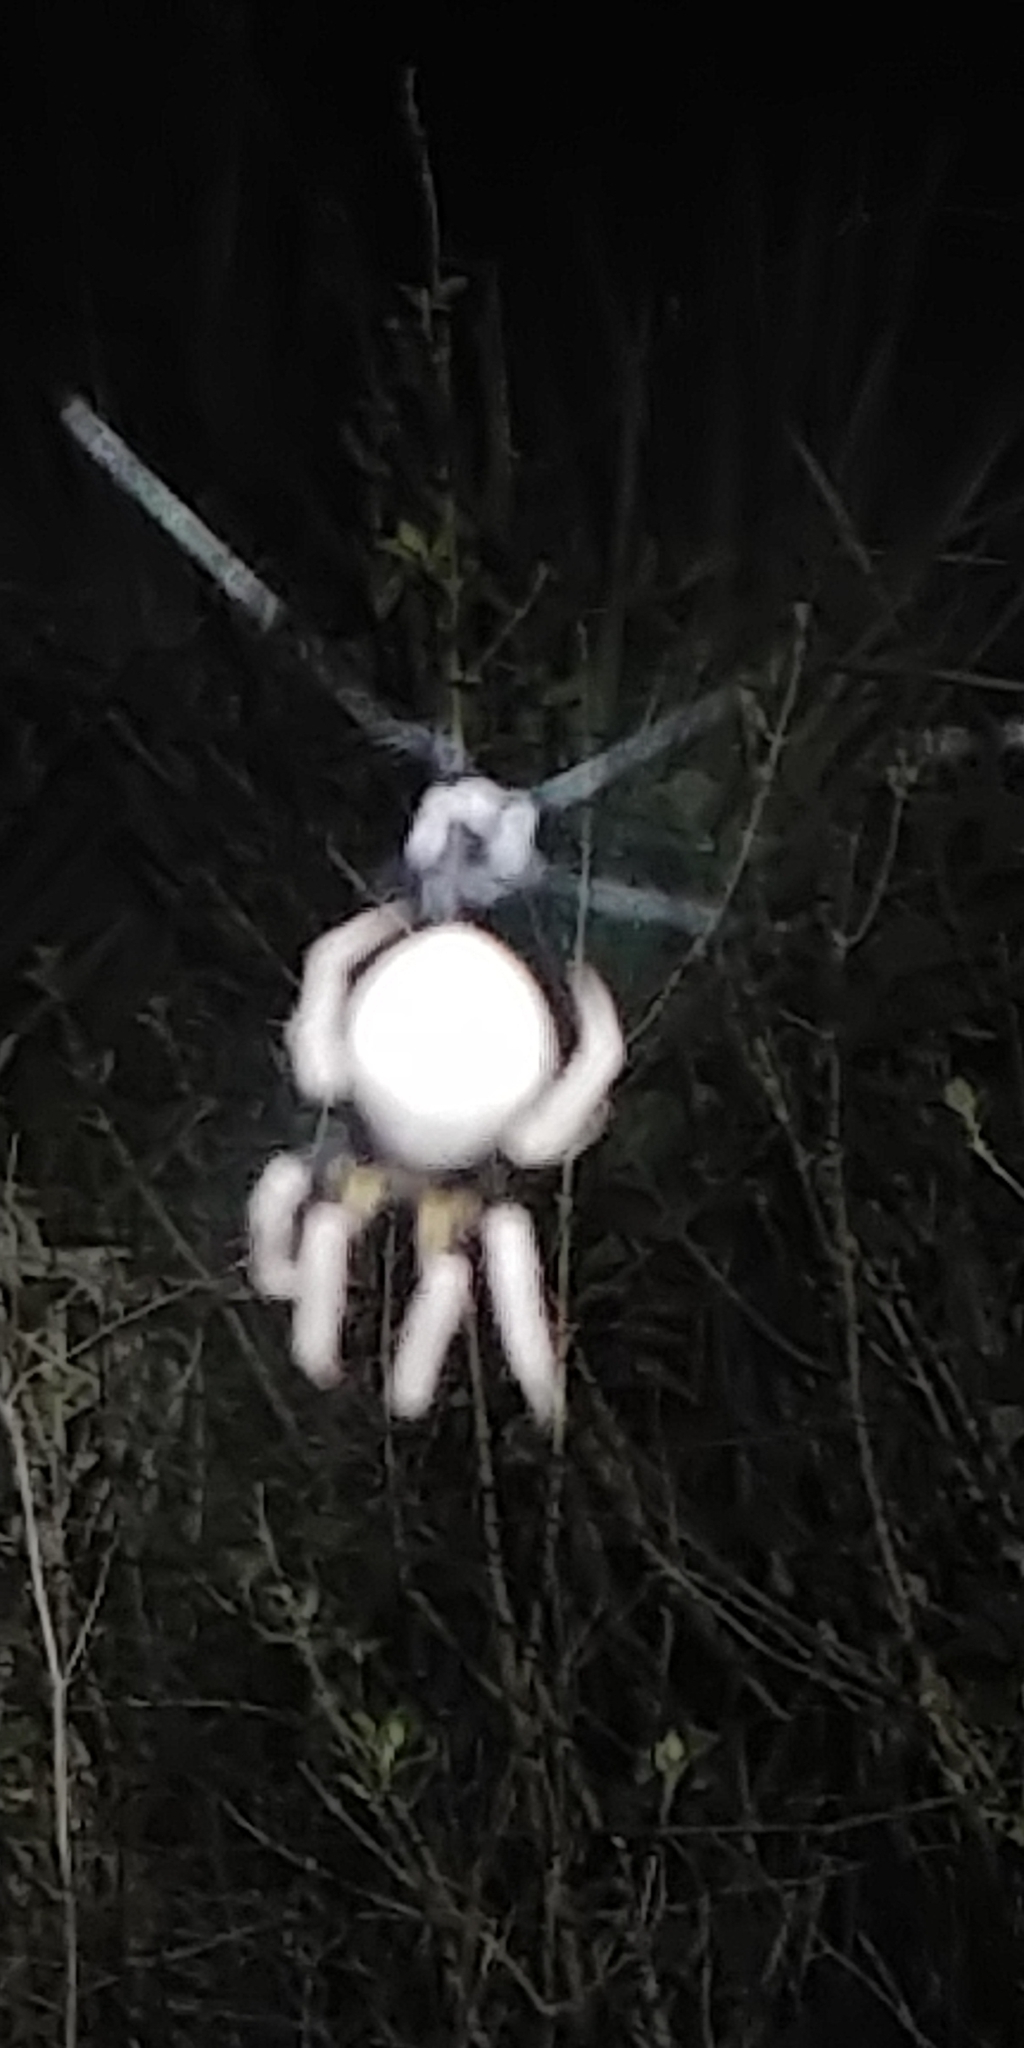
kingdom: Animalia
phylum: Arthropoda
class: Arachnida
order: Araneae
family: Araneidae
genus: Eriophora
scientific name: Eriophora ravilla
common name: Orb weavers
